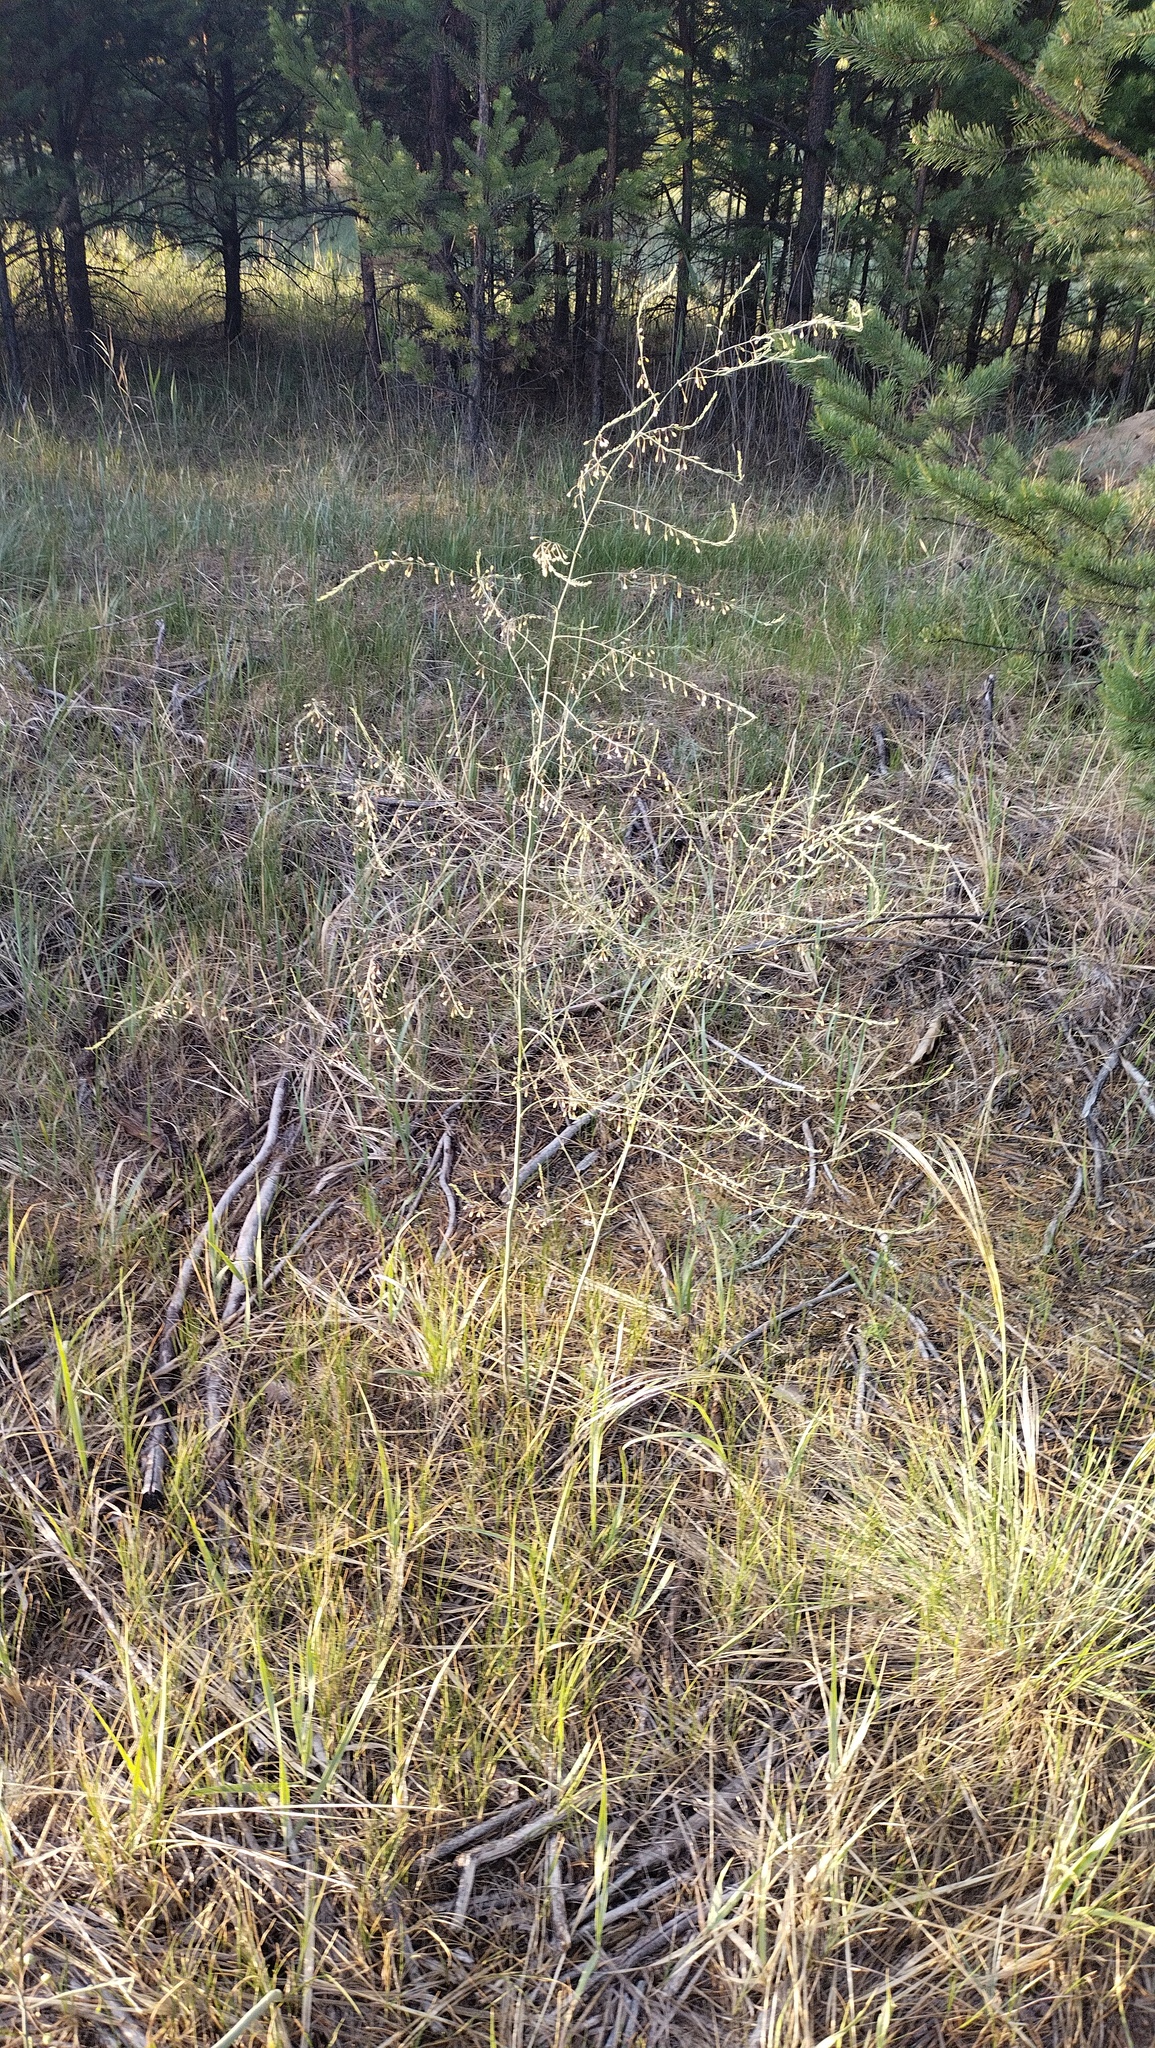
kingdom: Plantae
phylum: Tracheophyta
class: Liliopsida
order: Asparagales
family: Asparagaceae
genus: Asparagus
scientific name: Asparagus officinalis
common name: Garden asparagus
